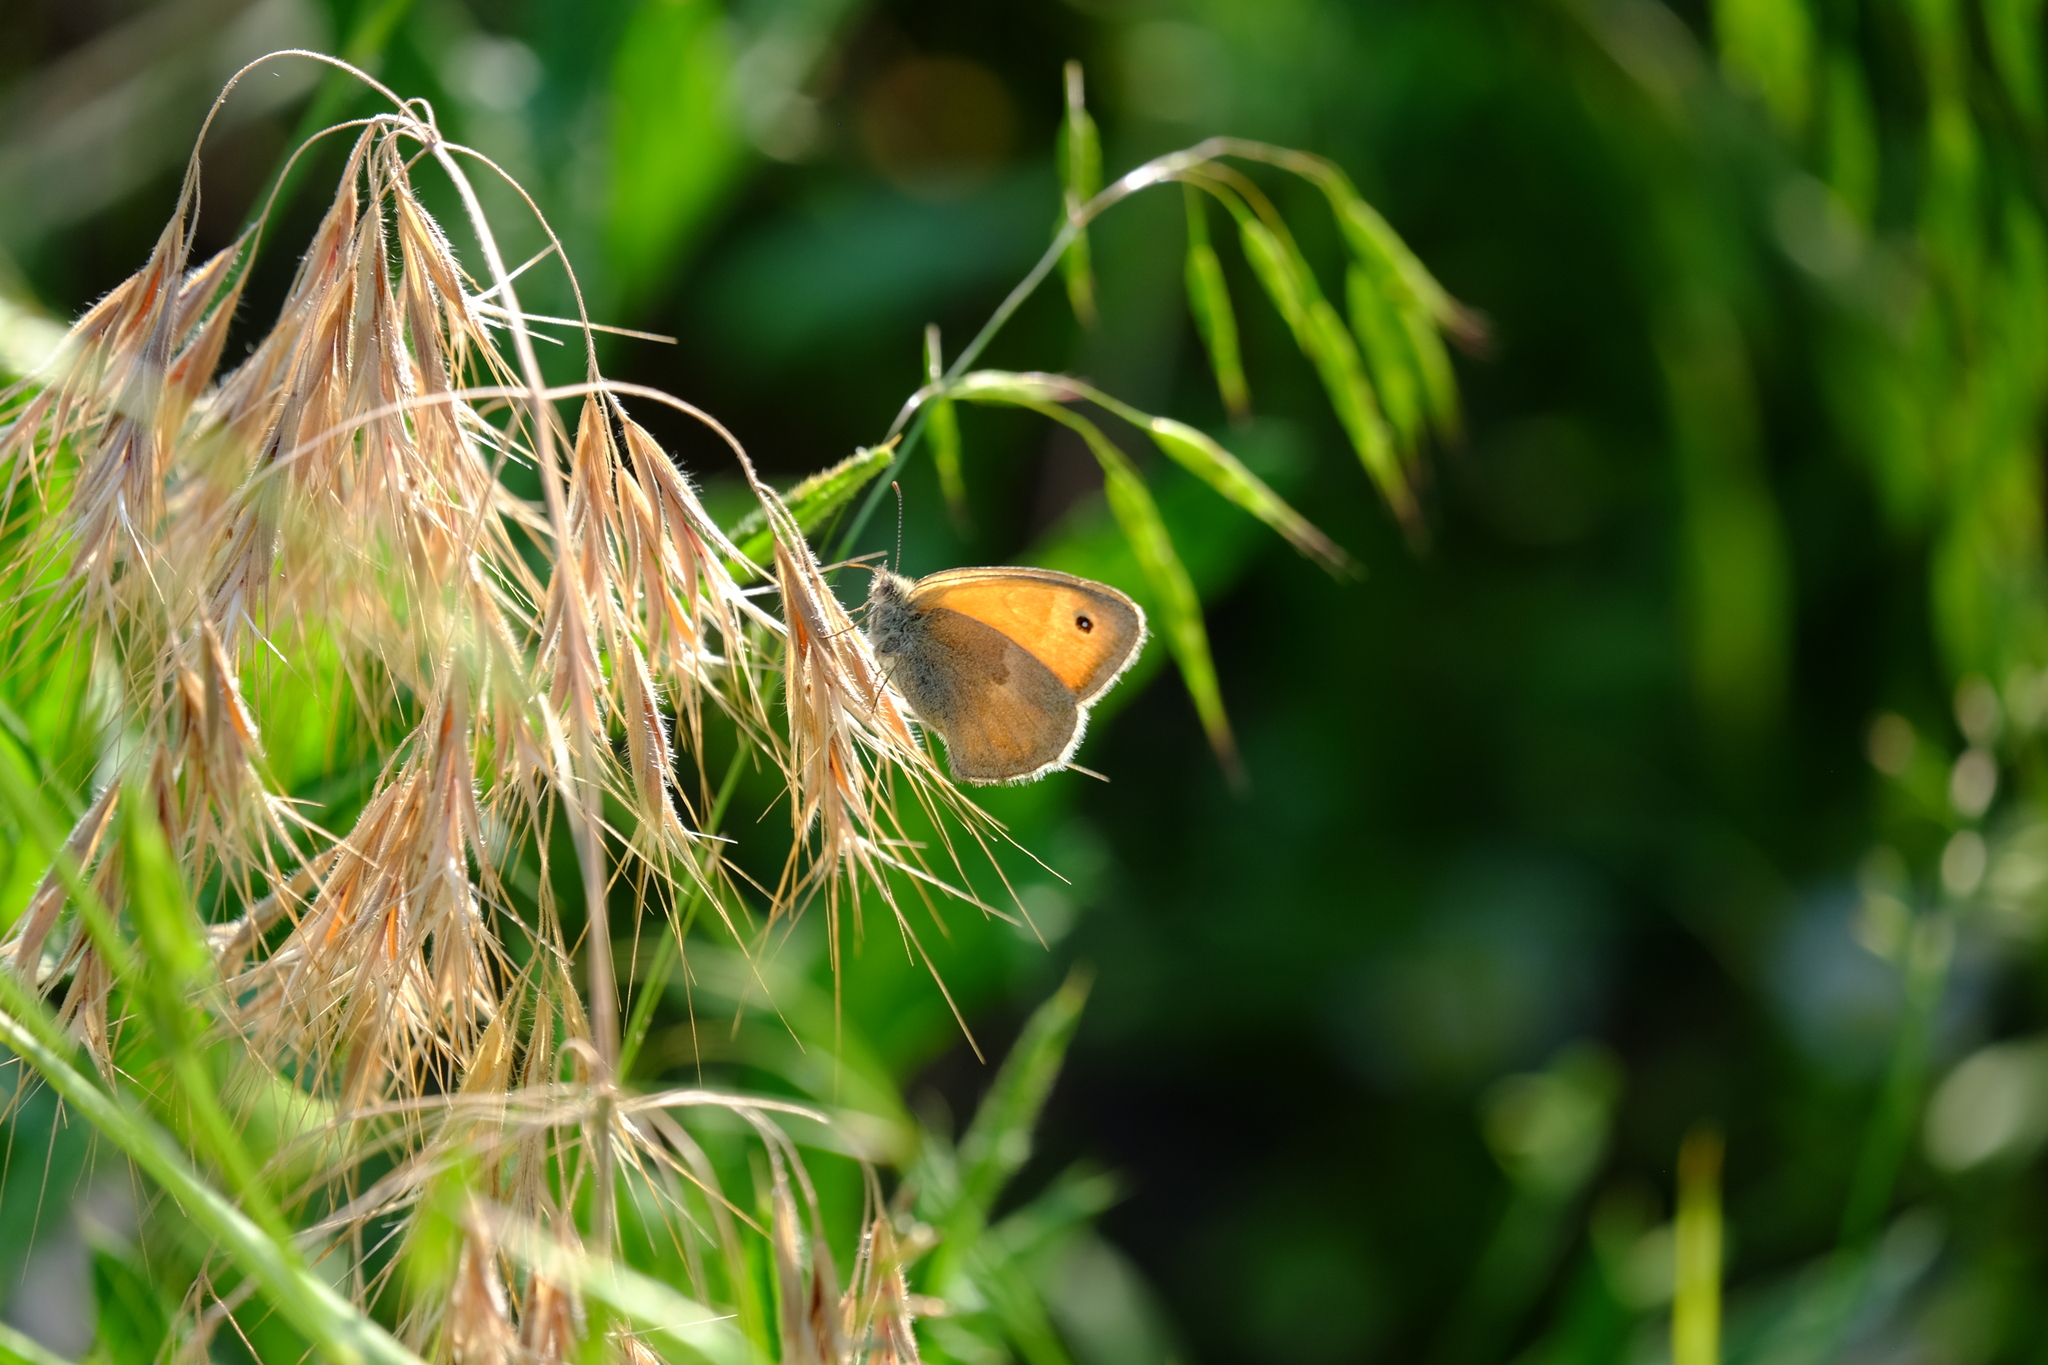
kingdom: Animalia
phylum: Arthropoda
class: Insecta
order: Lepidoptera
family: Nymphalidae
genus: Coenonympha
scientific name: Coenonympha pamphilus
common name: Small heath
